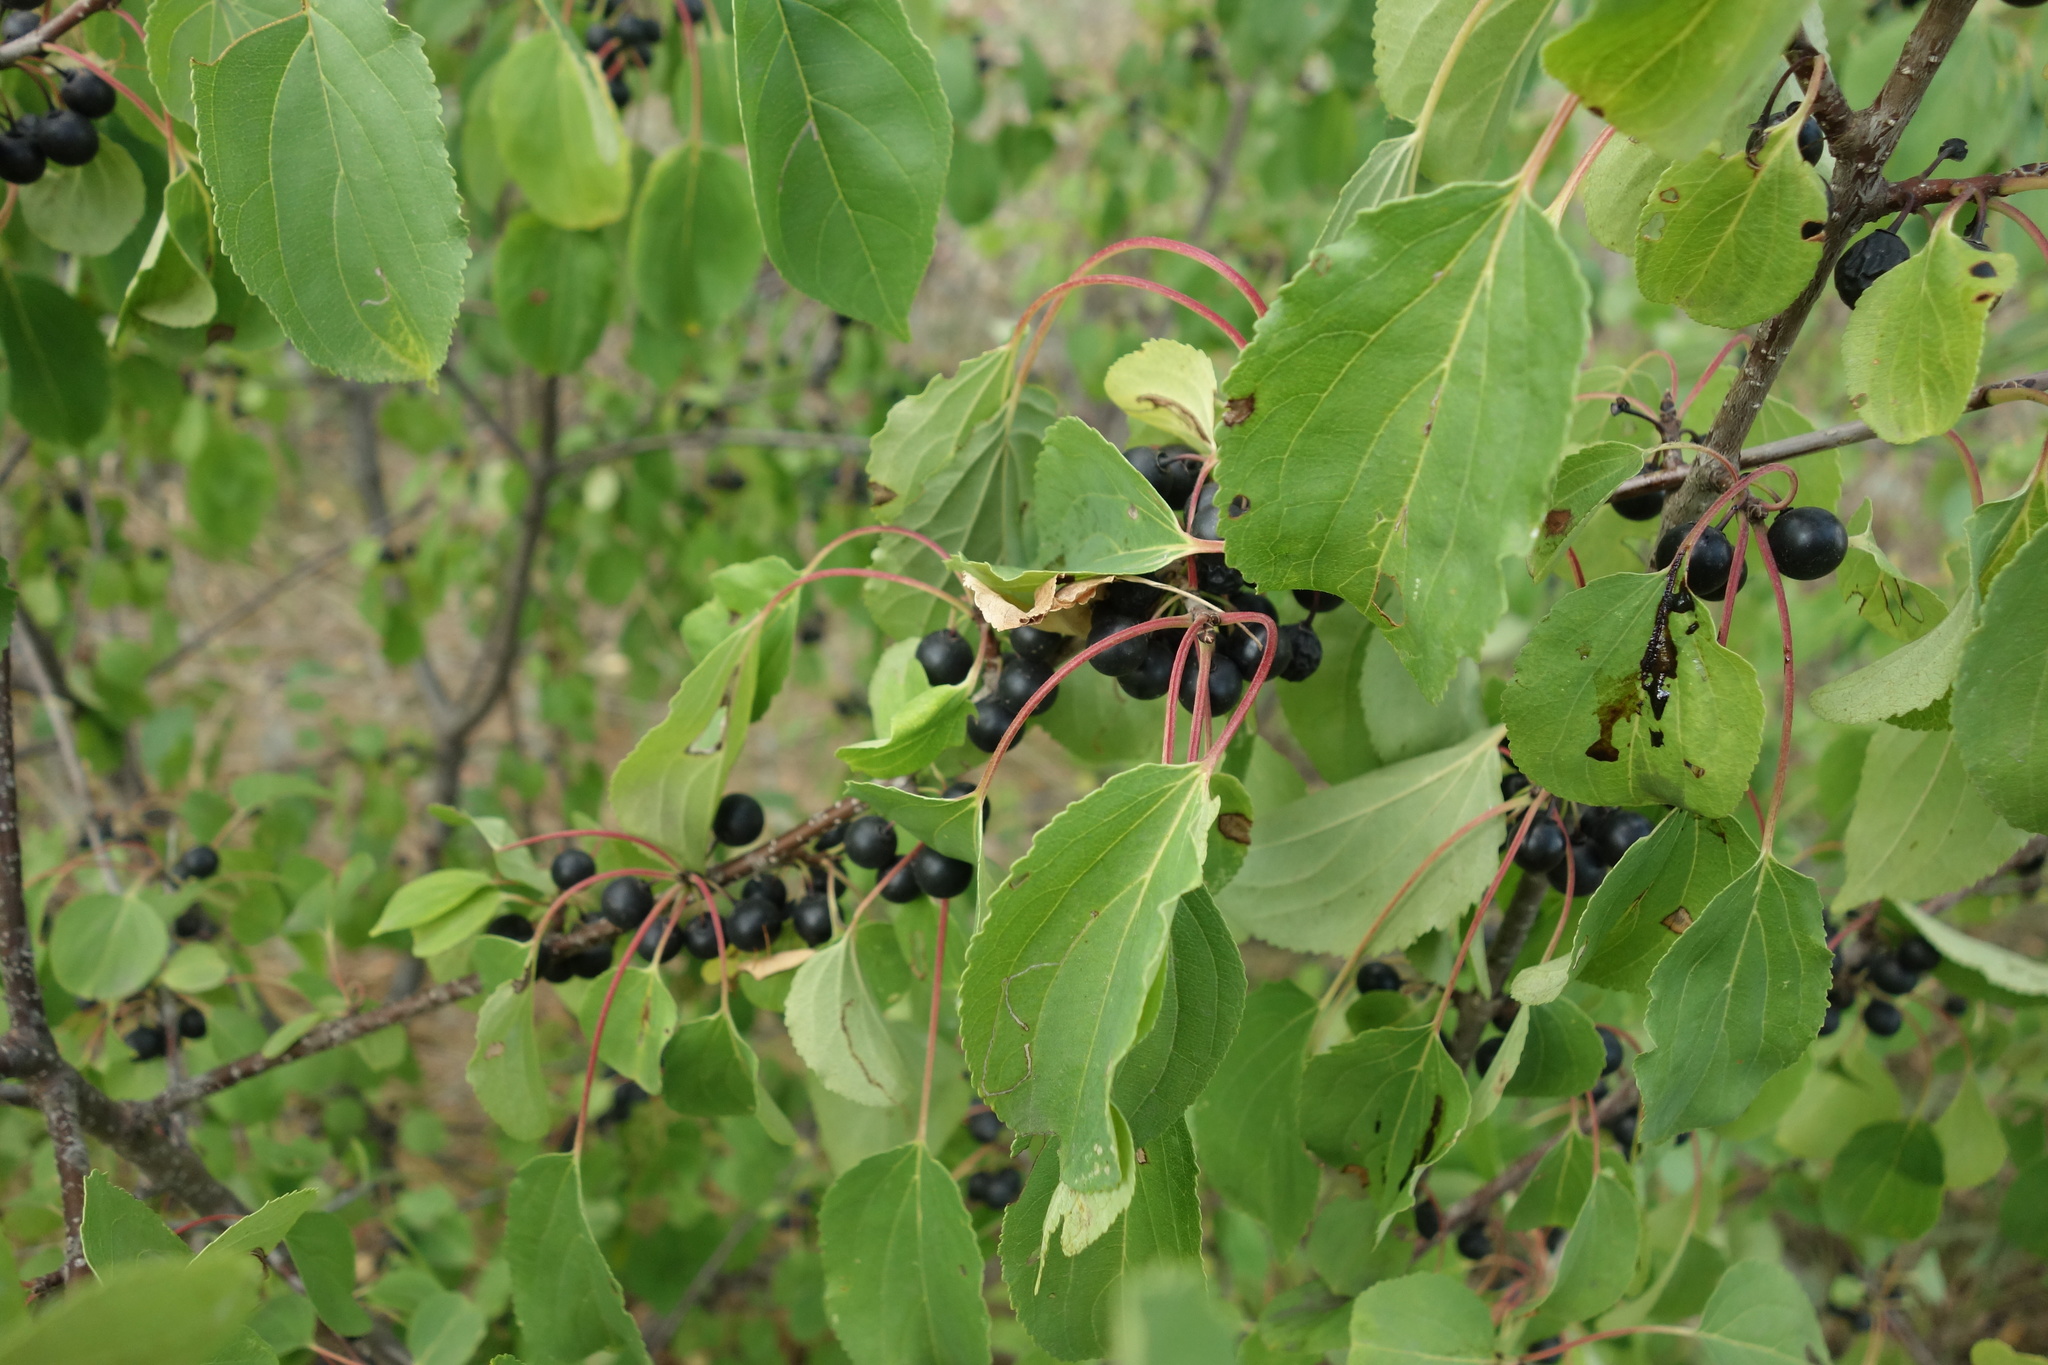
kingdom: Plantae
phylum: Tracheophyta
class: Magnoliopsida
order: Rosales
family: Rhamnaceae
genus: Rhamnus
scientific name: Rhamnus cathartica
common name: Common buckthorn
